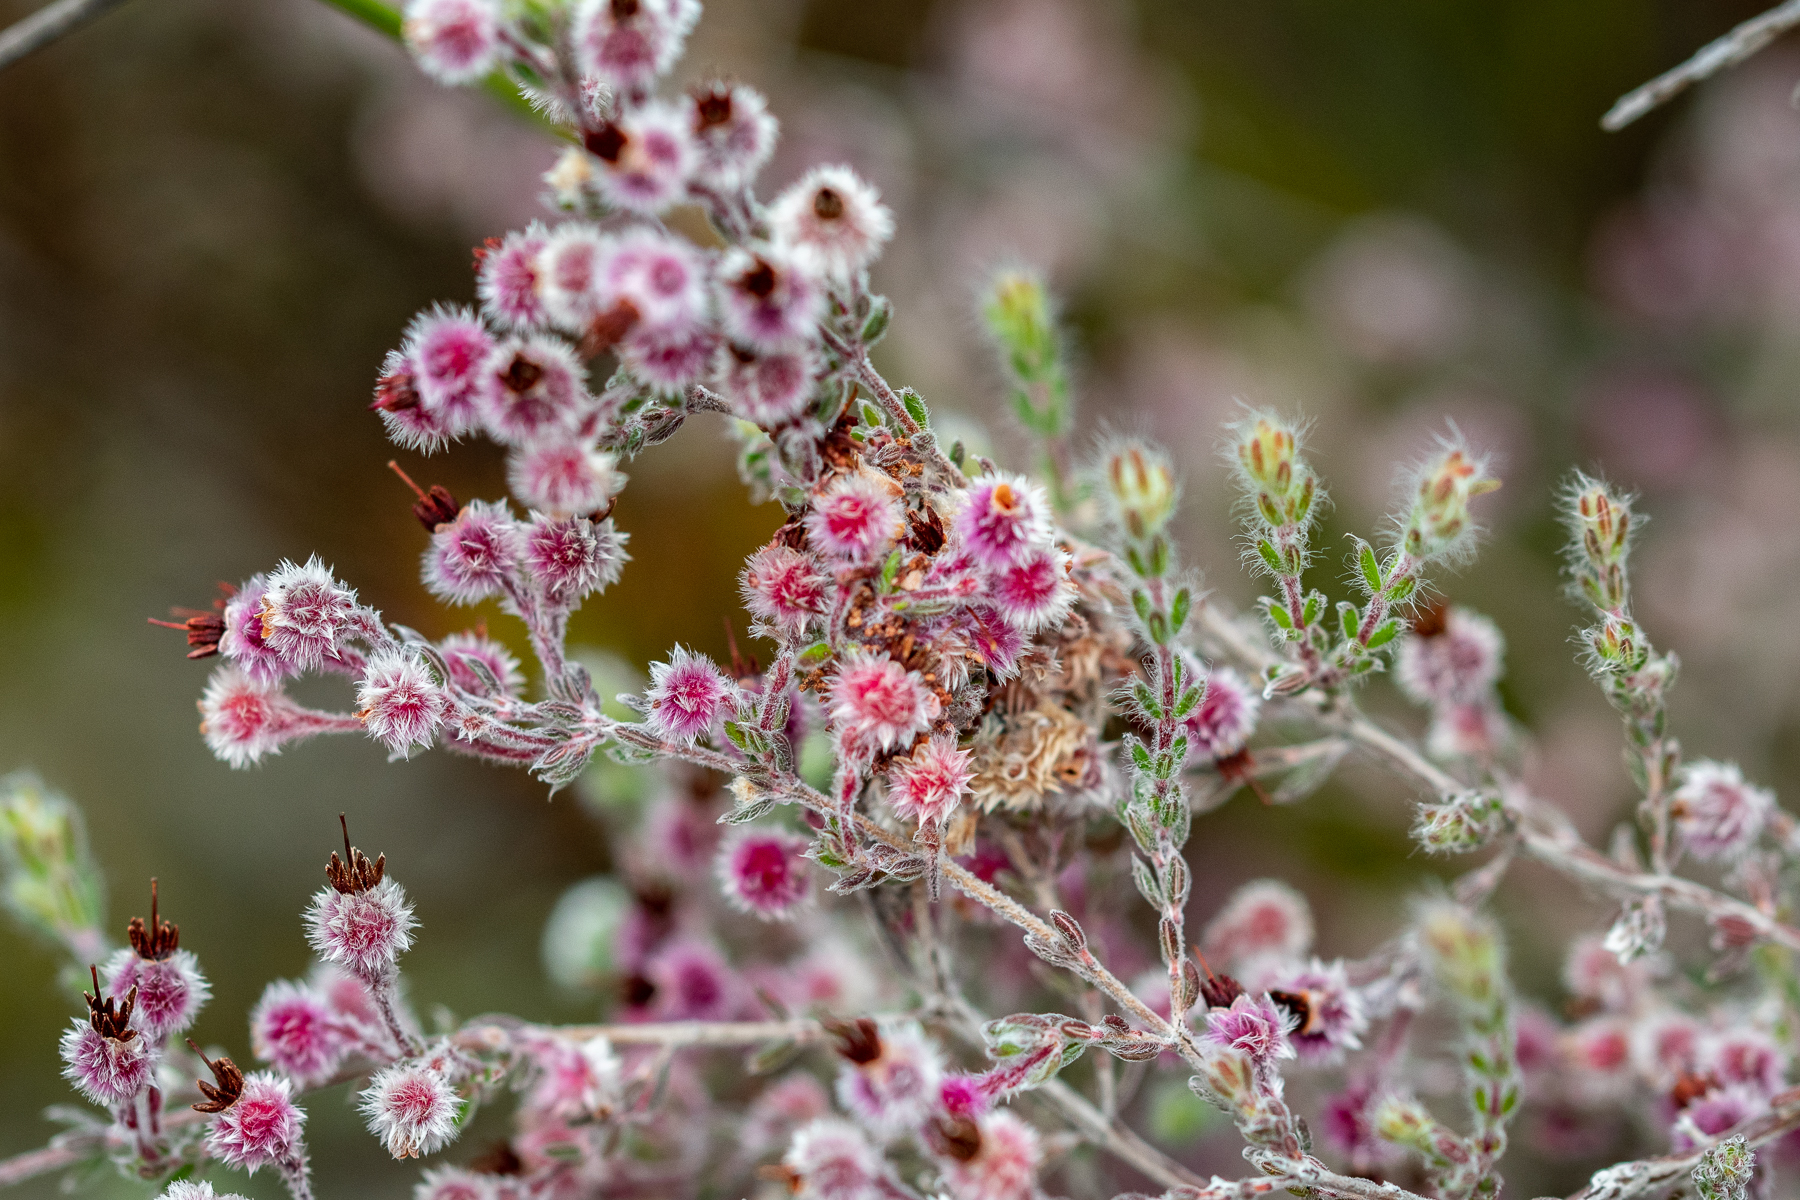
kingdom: Plantae
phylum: Tracheophyta
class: Magnoliopsida
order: Ericales
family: Ericaceae
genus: Erica
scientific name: Erica bruniades
